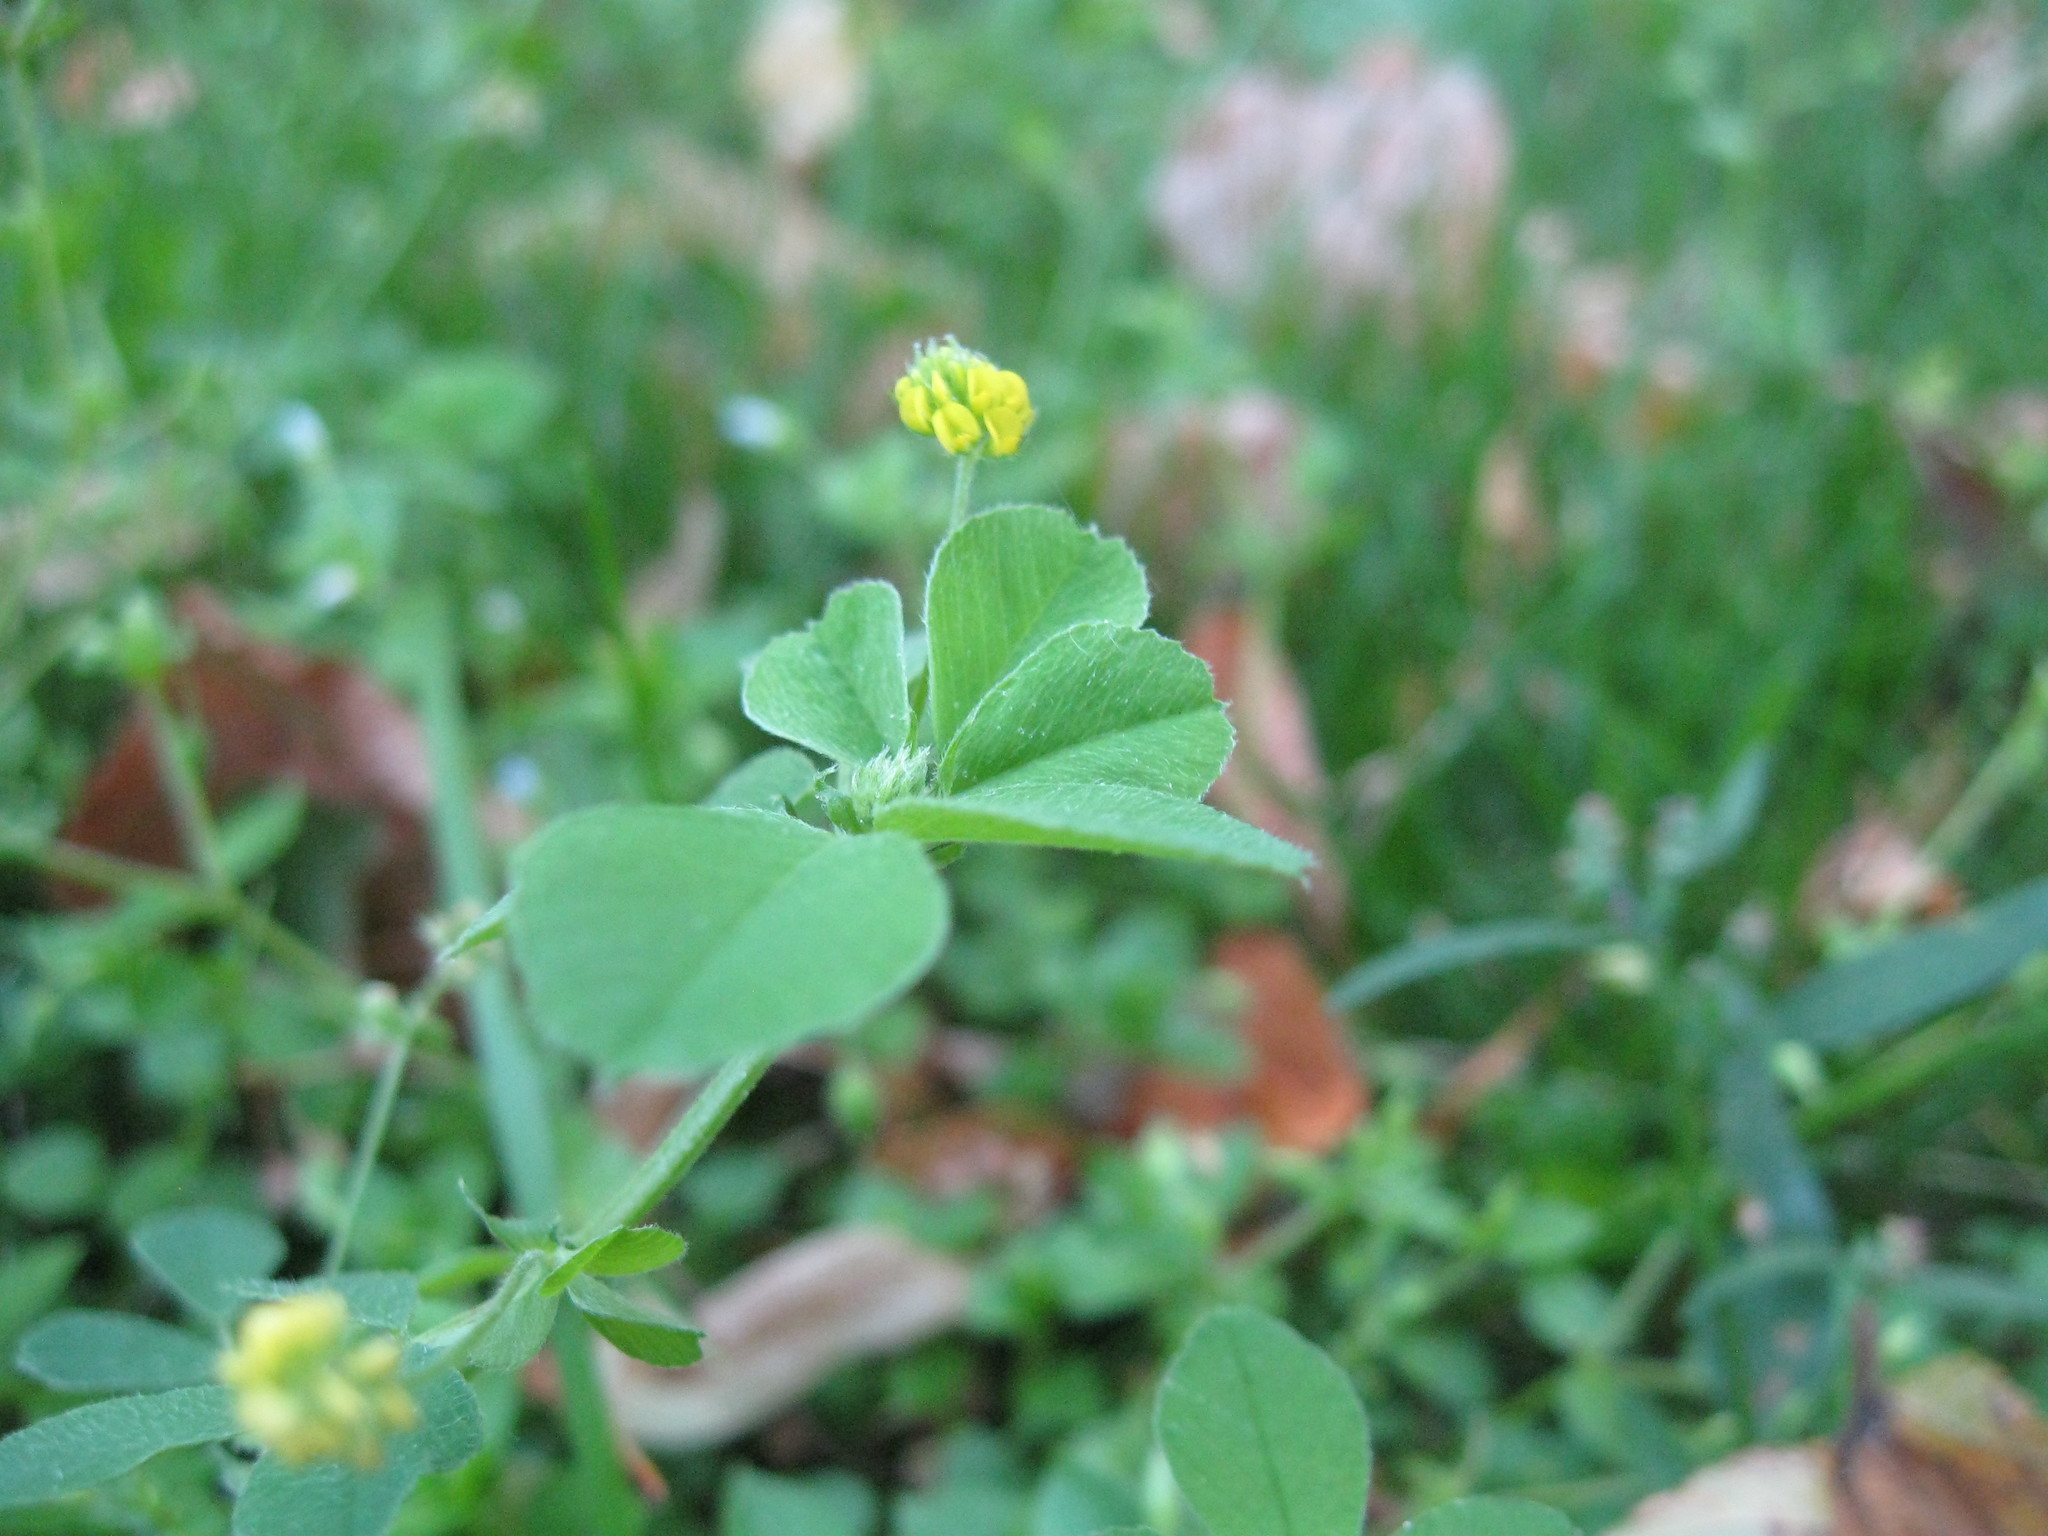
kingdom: Plantae
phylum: Tracheophyta
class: Magnoliopsida
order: Fabales
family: Fabaceae
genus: Medicago
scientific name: Medicago lupulina
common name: Black medick
